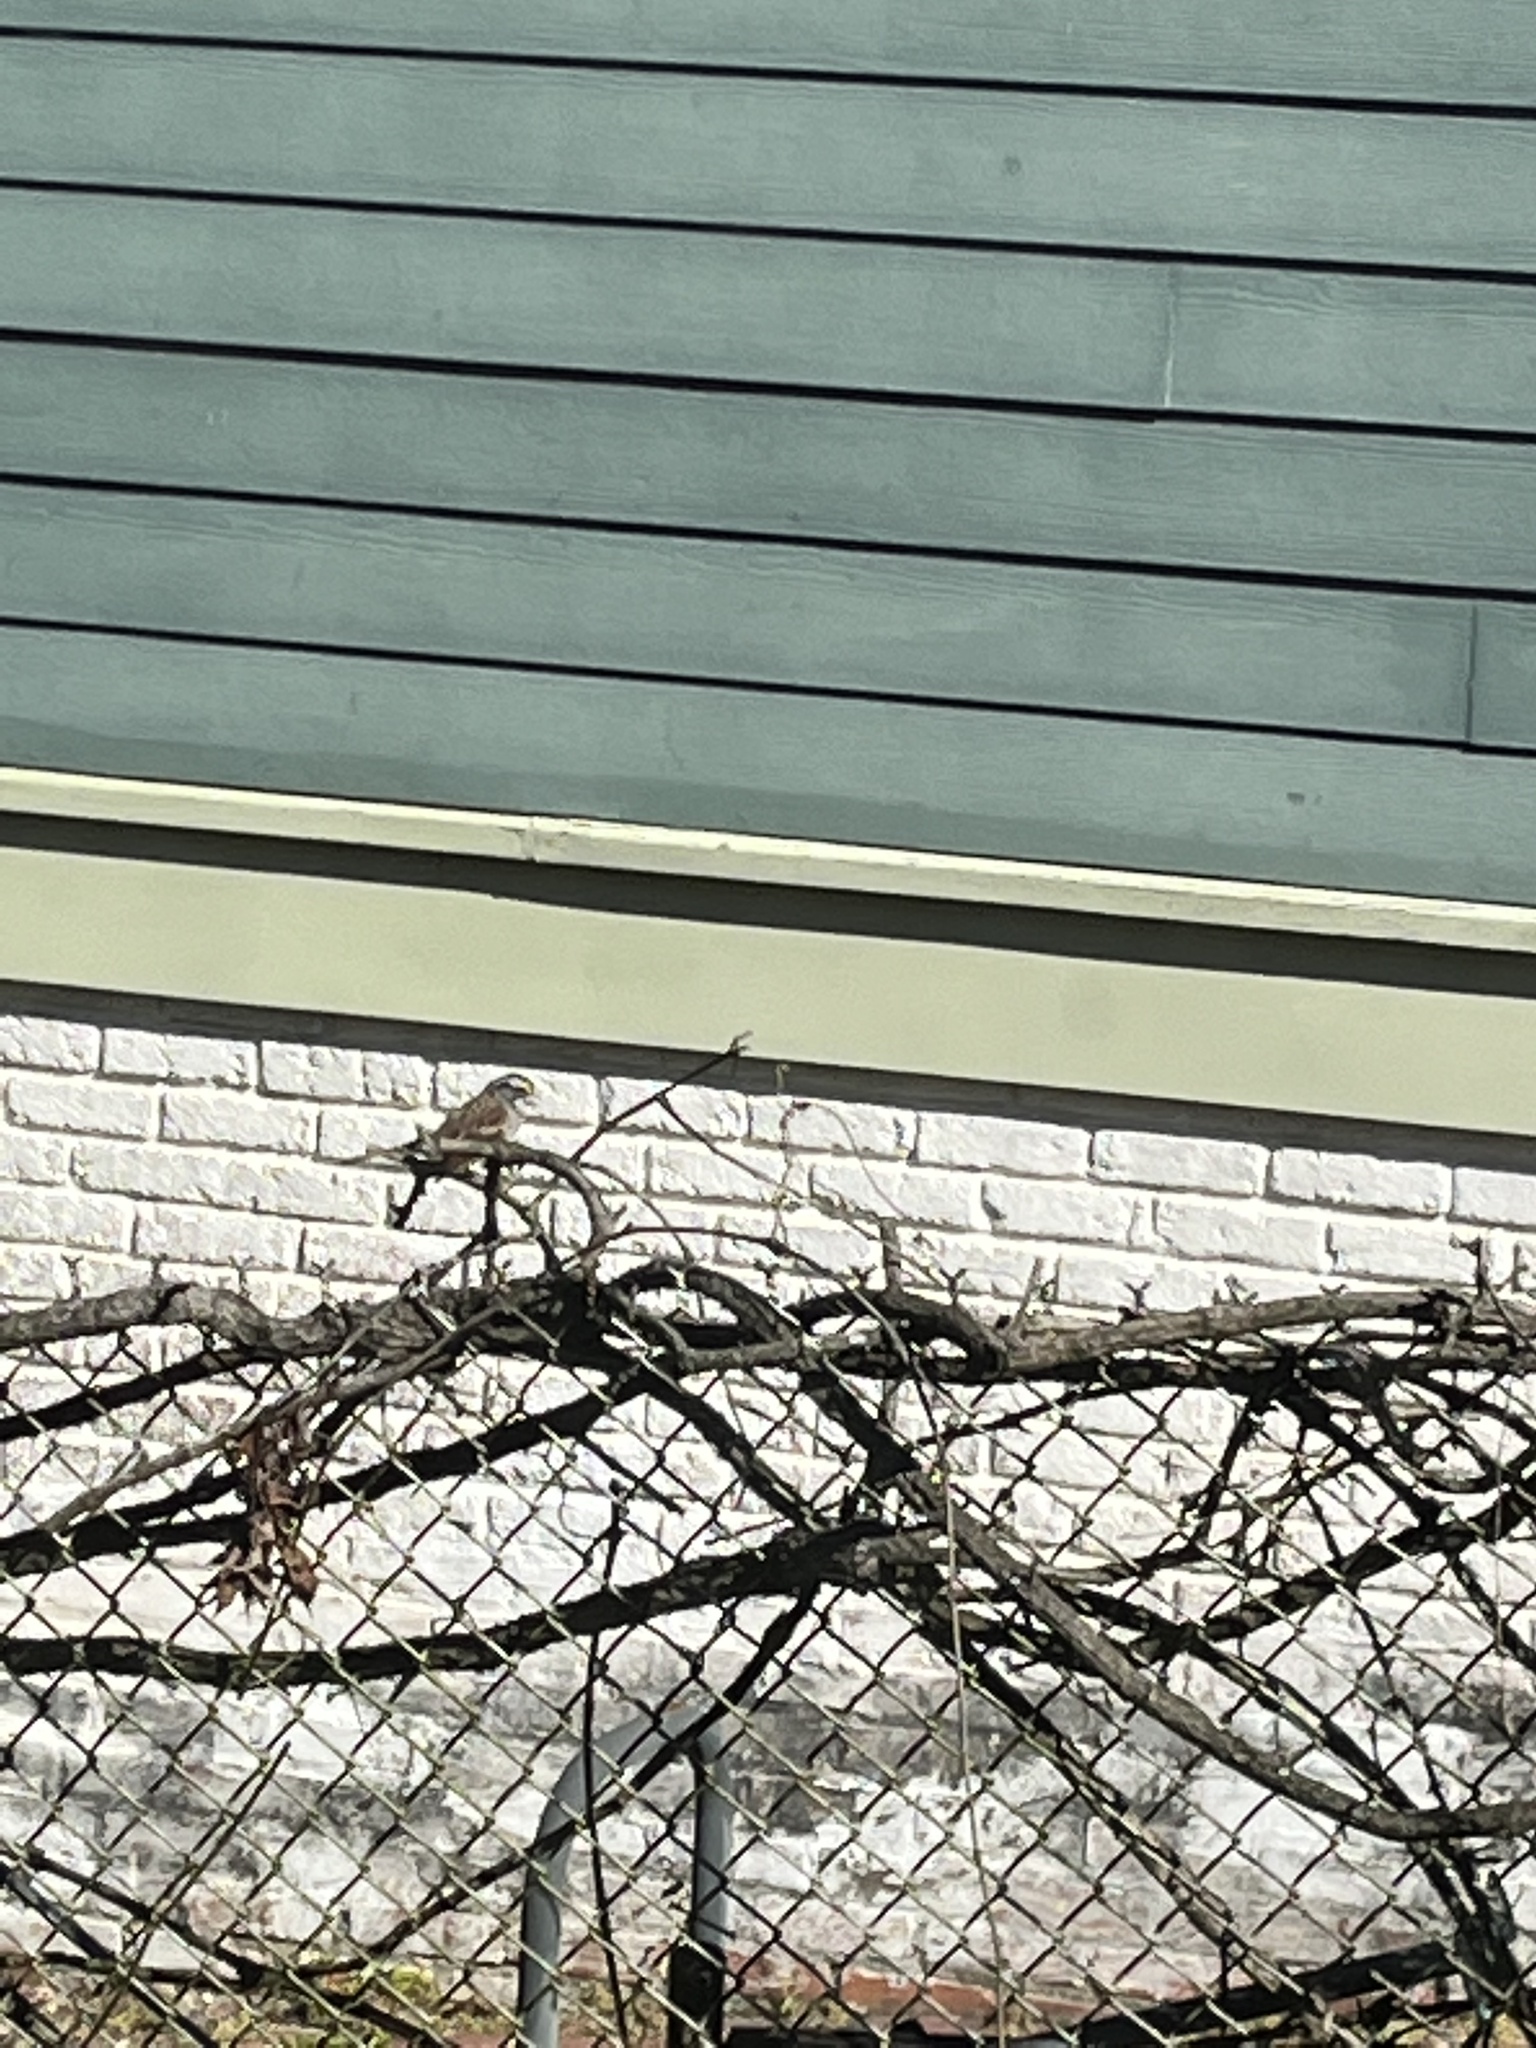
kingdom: Animalia
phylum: Chordata
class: Aves
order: Passeriformes
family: Passerellidae
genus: Zonotrichia
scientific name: Zonotrichia albicollis
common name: White-throated sparrow
